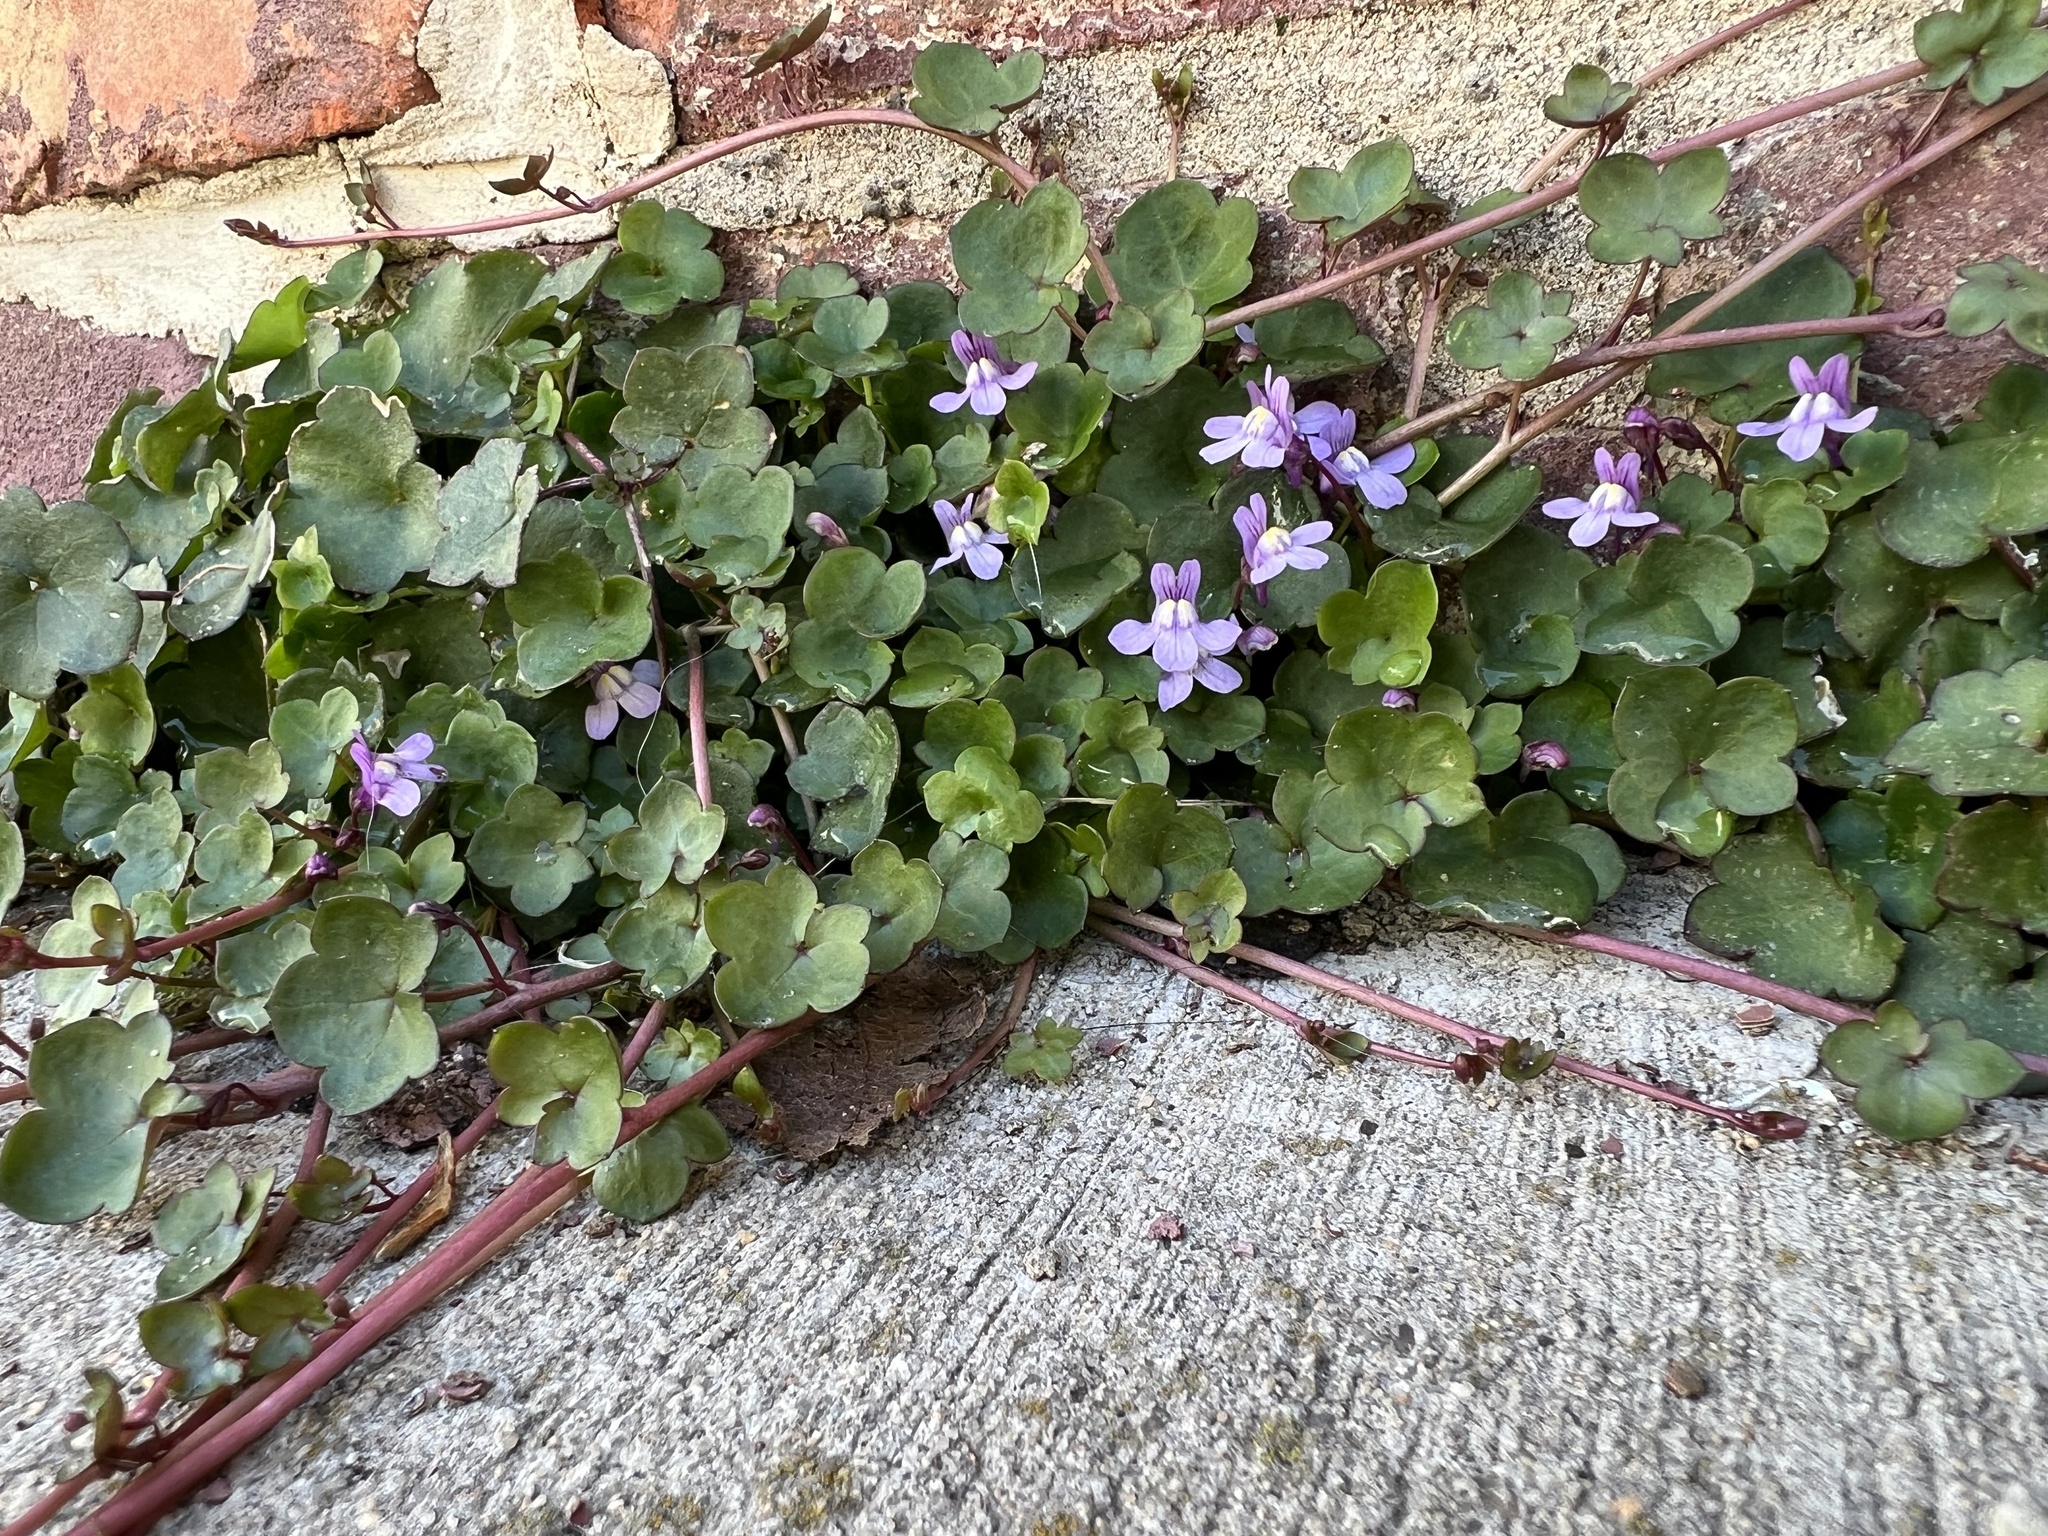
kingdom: Plantae
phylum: Tracheophyta
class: Magnoliopsida
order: Lamiales
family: Plantaginaceae
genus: Cymbalaria
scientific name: Cymbalaria muralis
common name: Ivy-leaved toadflax
